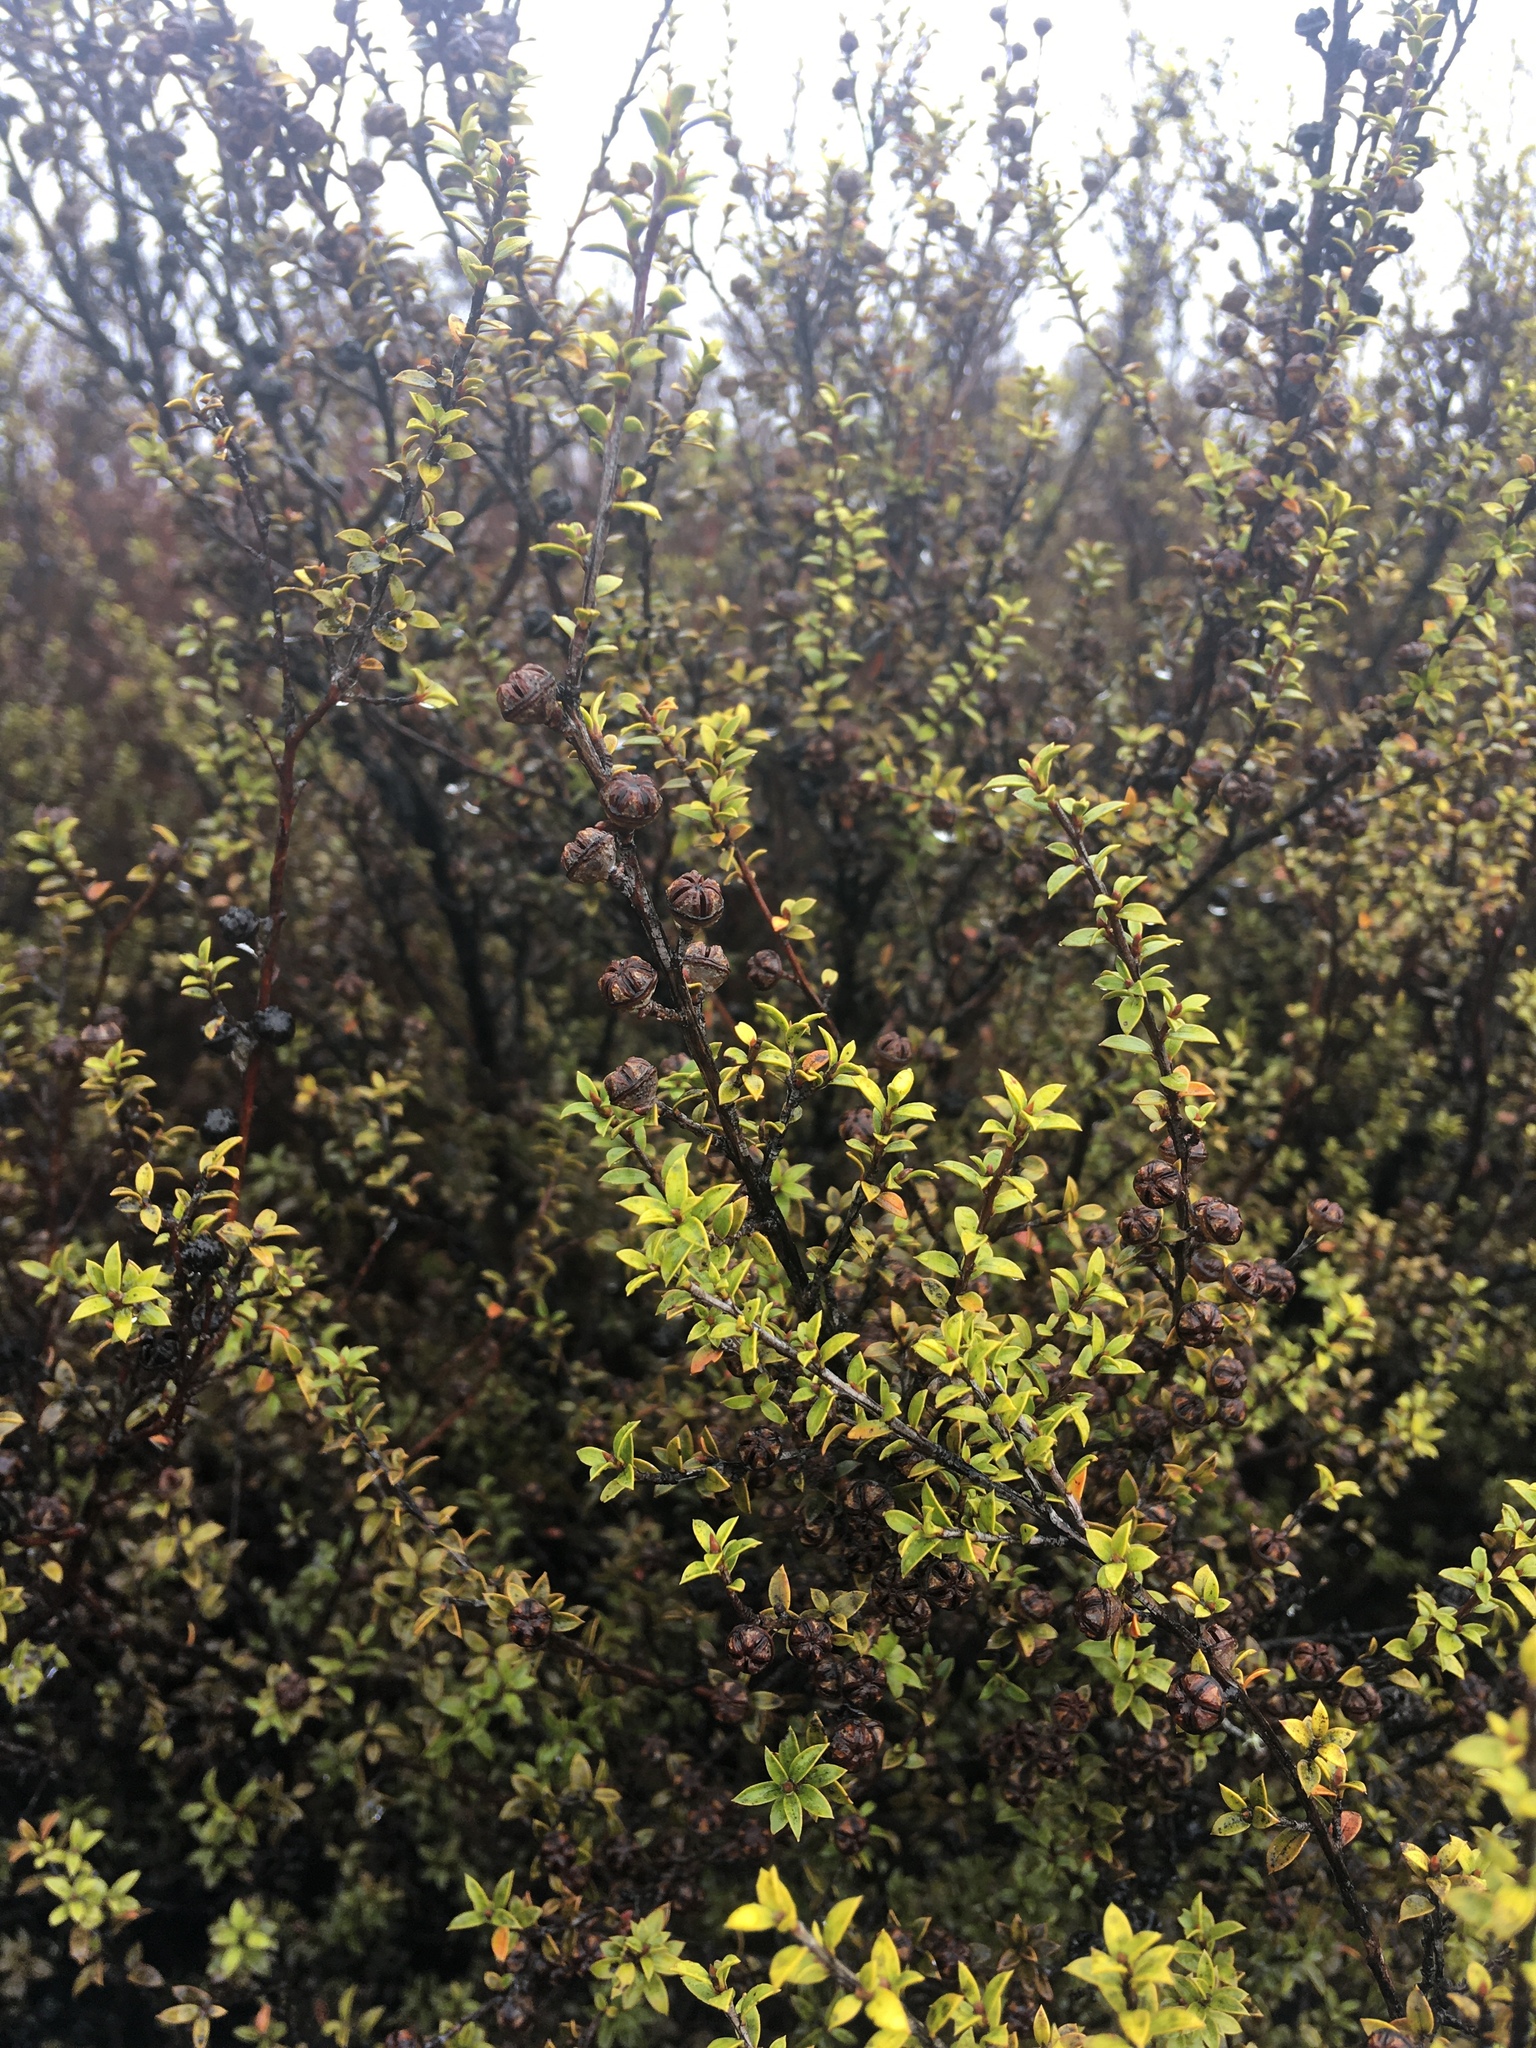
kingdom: Plantae
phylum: Tracheophyta
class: Magnoliopsida
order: Myrtales
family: Myrtaceae
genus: Leptospermum
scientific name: Leptospermum scoparium
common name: Broom tea-tree
